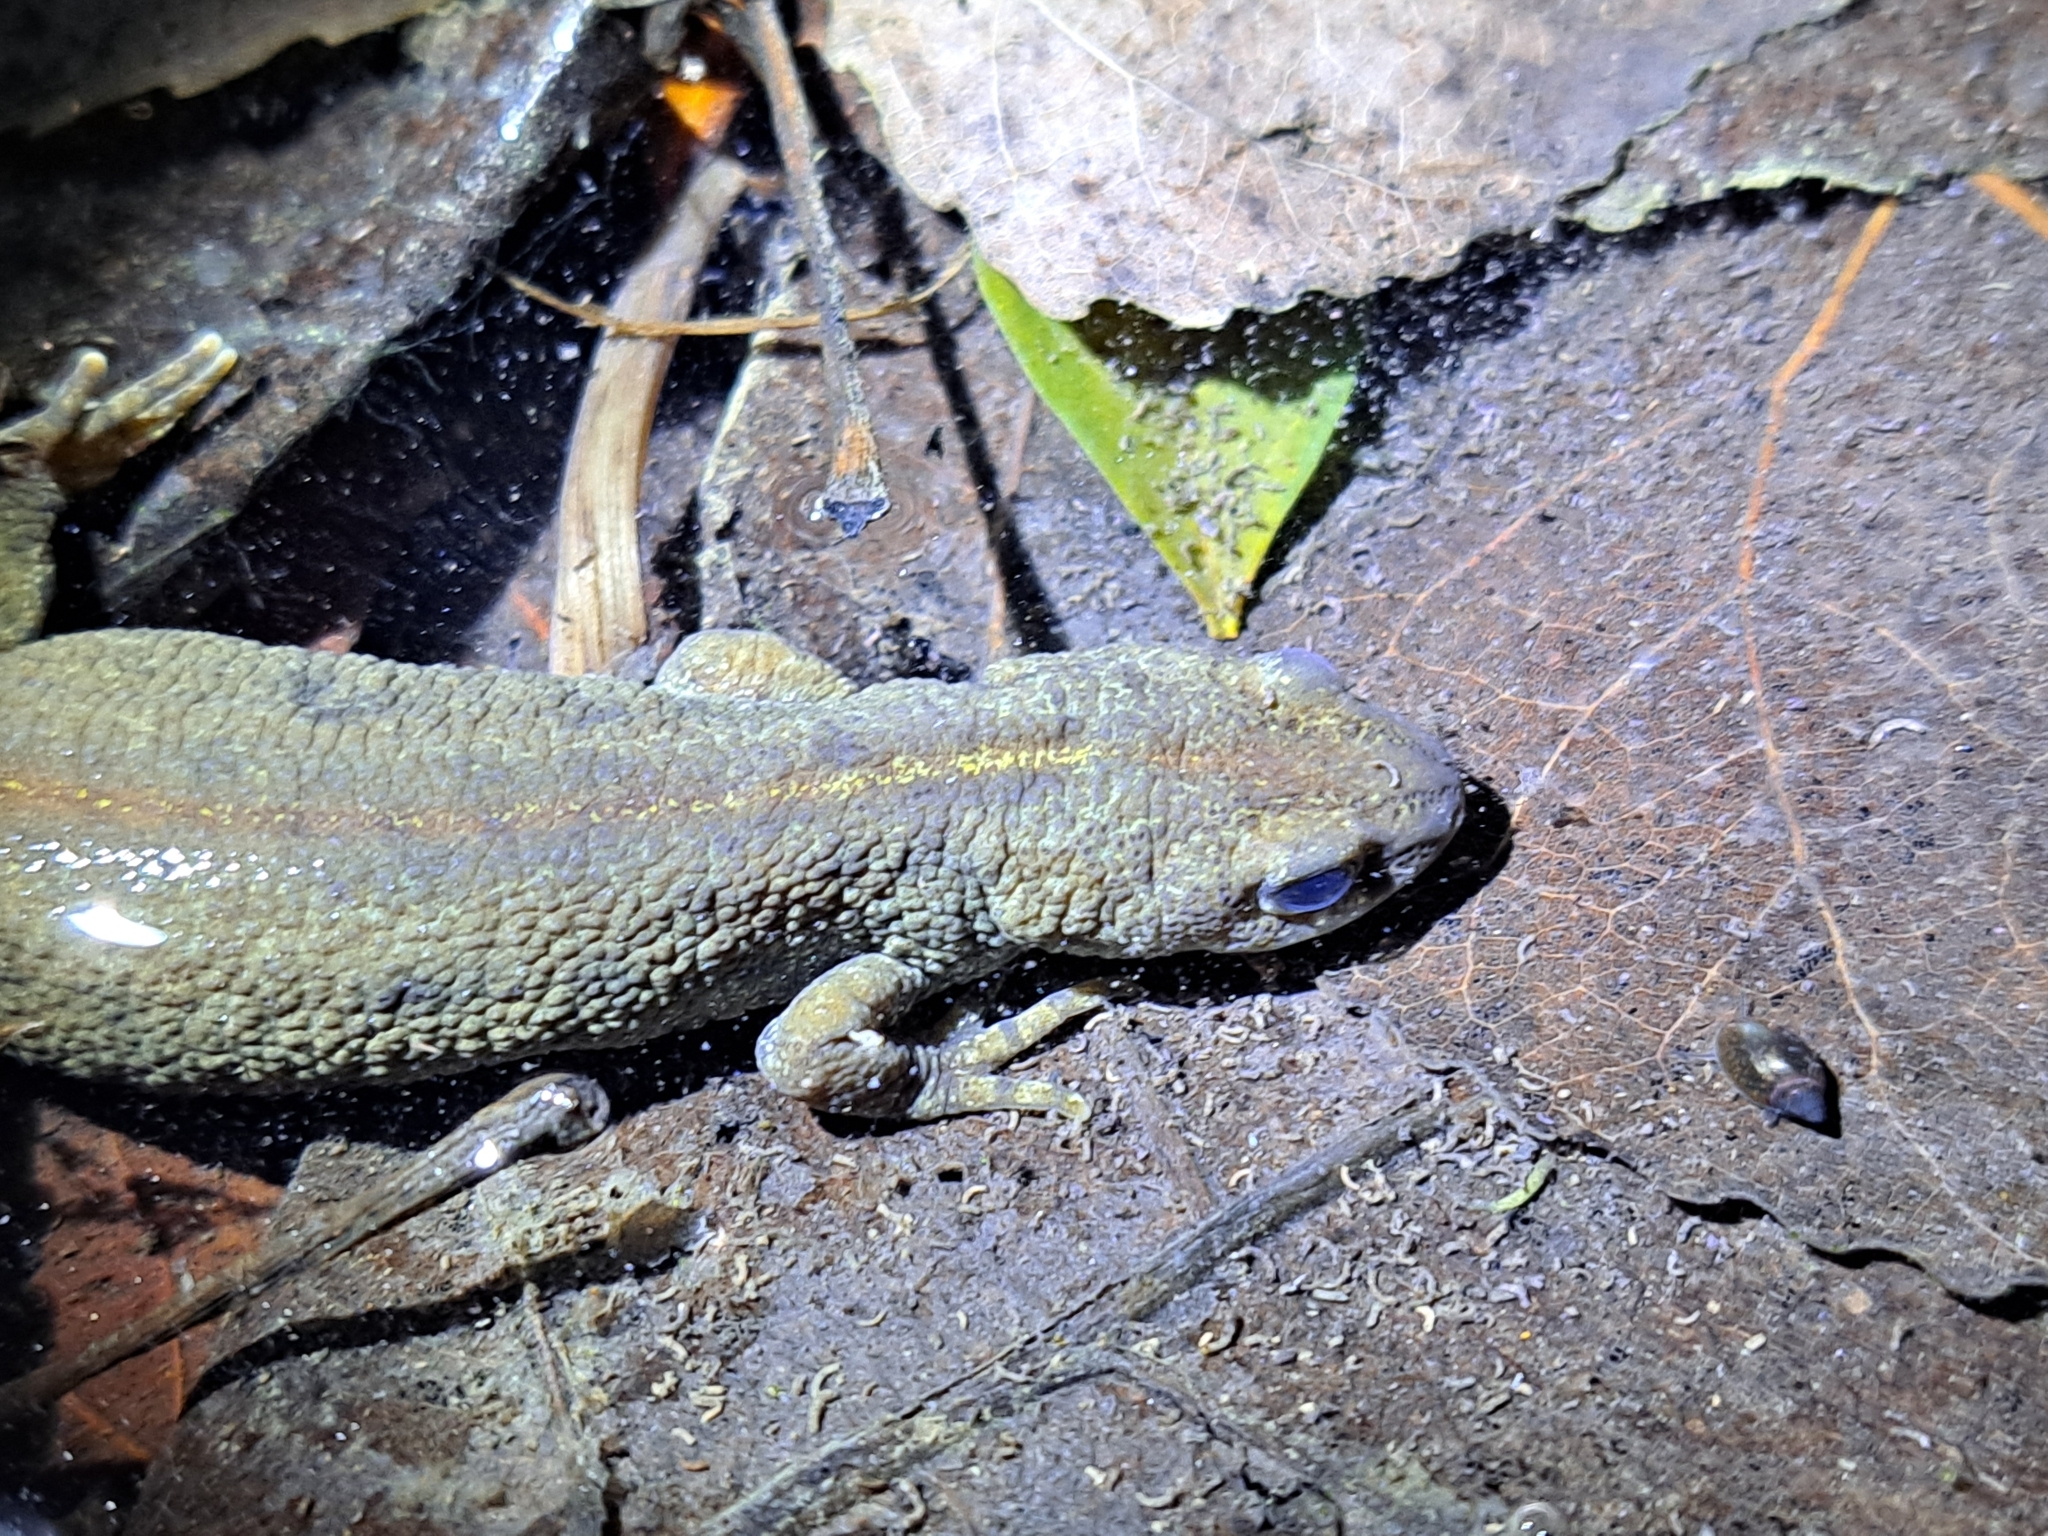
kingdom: Animalia
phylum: Chordata
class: Amphibia
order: Caudata
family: Salamandridae
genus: Triturus
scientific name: Triturus carnifex
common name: Italian crested newt
